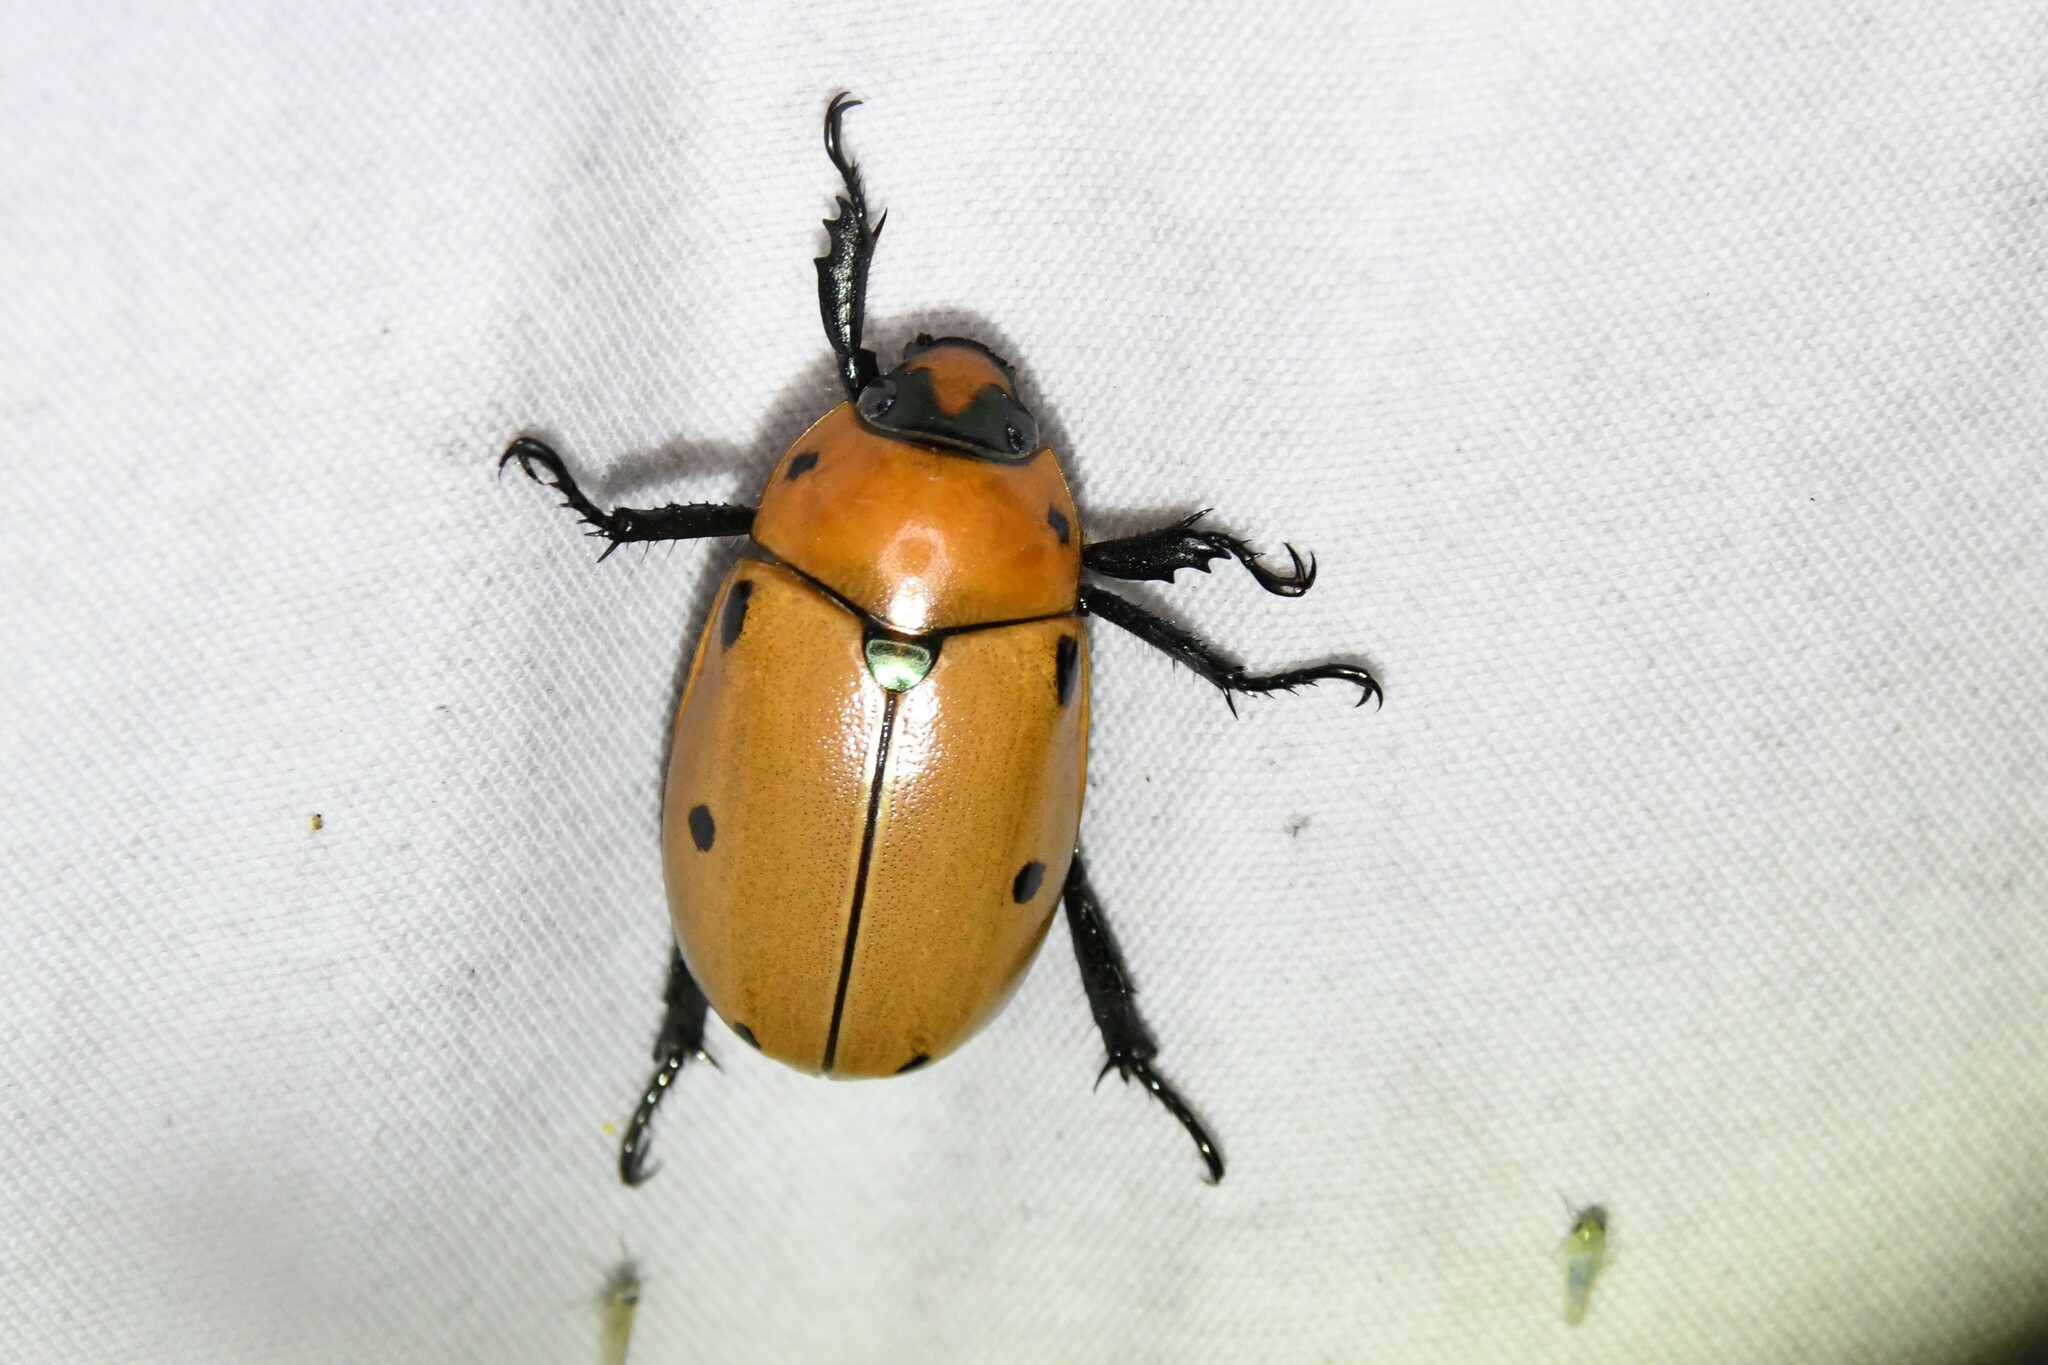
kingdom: Animalia
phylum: Arthropoda
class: Insecta
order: Coleoptera
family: Scarabaeidae
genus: Pelidnota
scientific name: Pelidnota punctata
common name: Grapevine beetle
